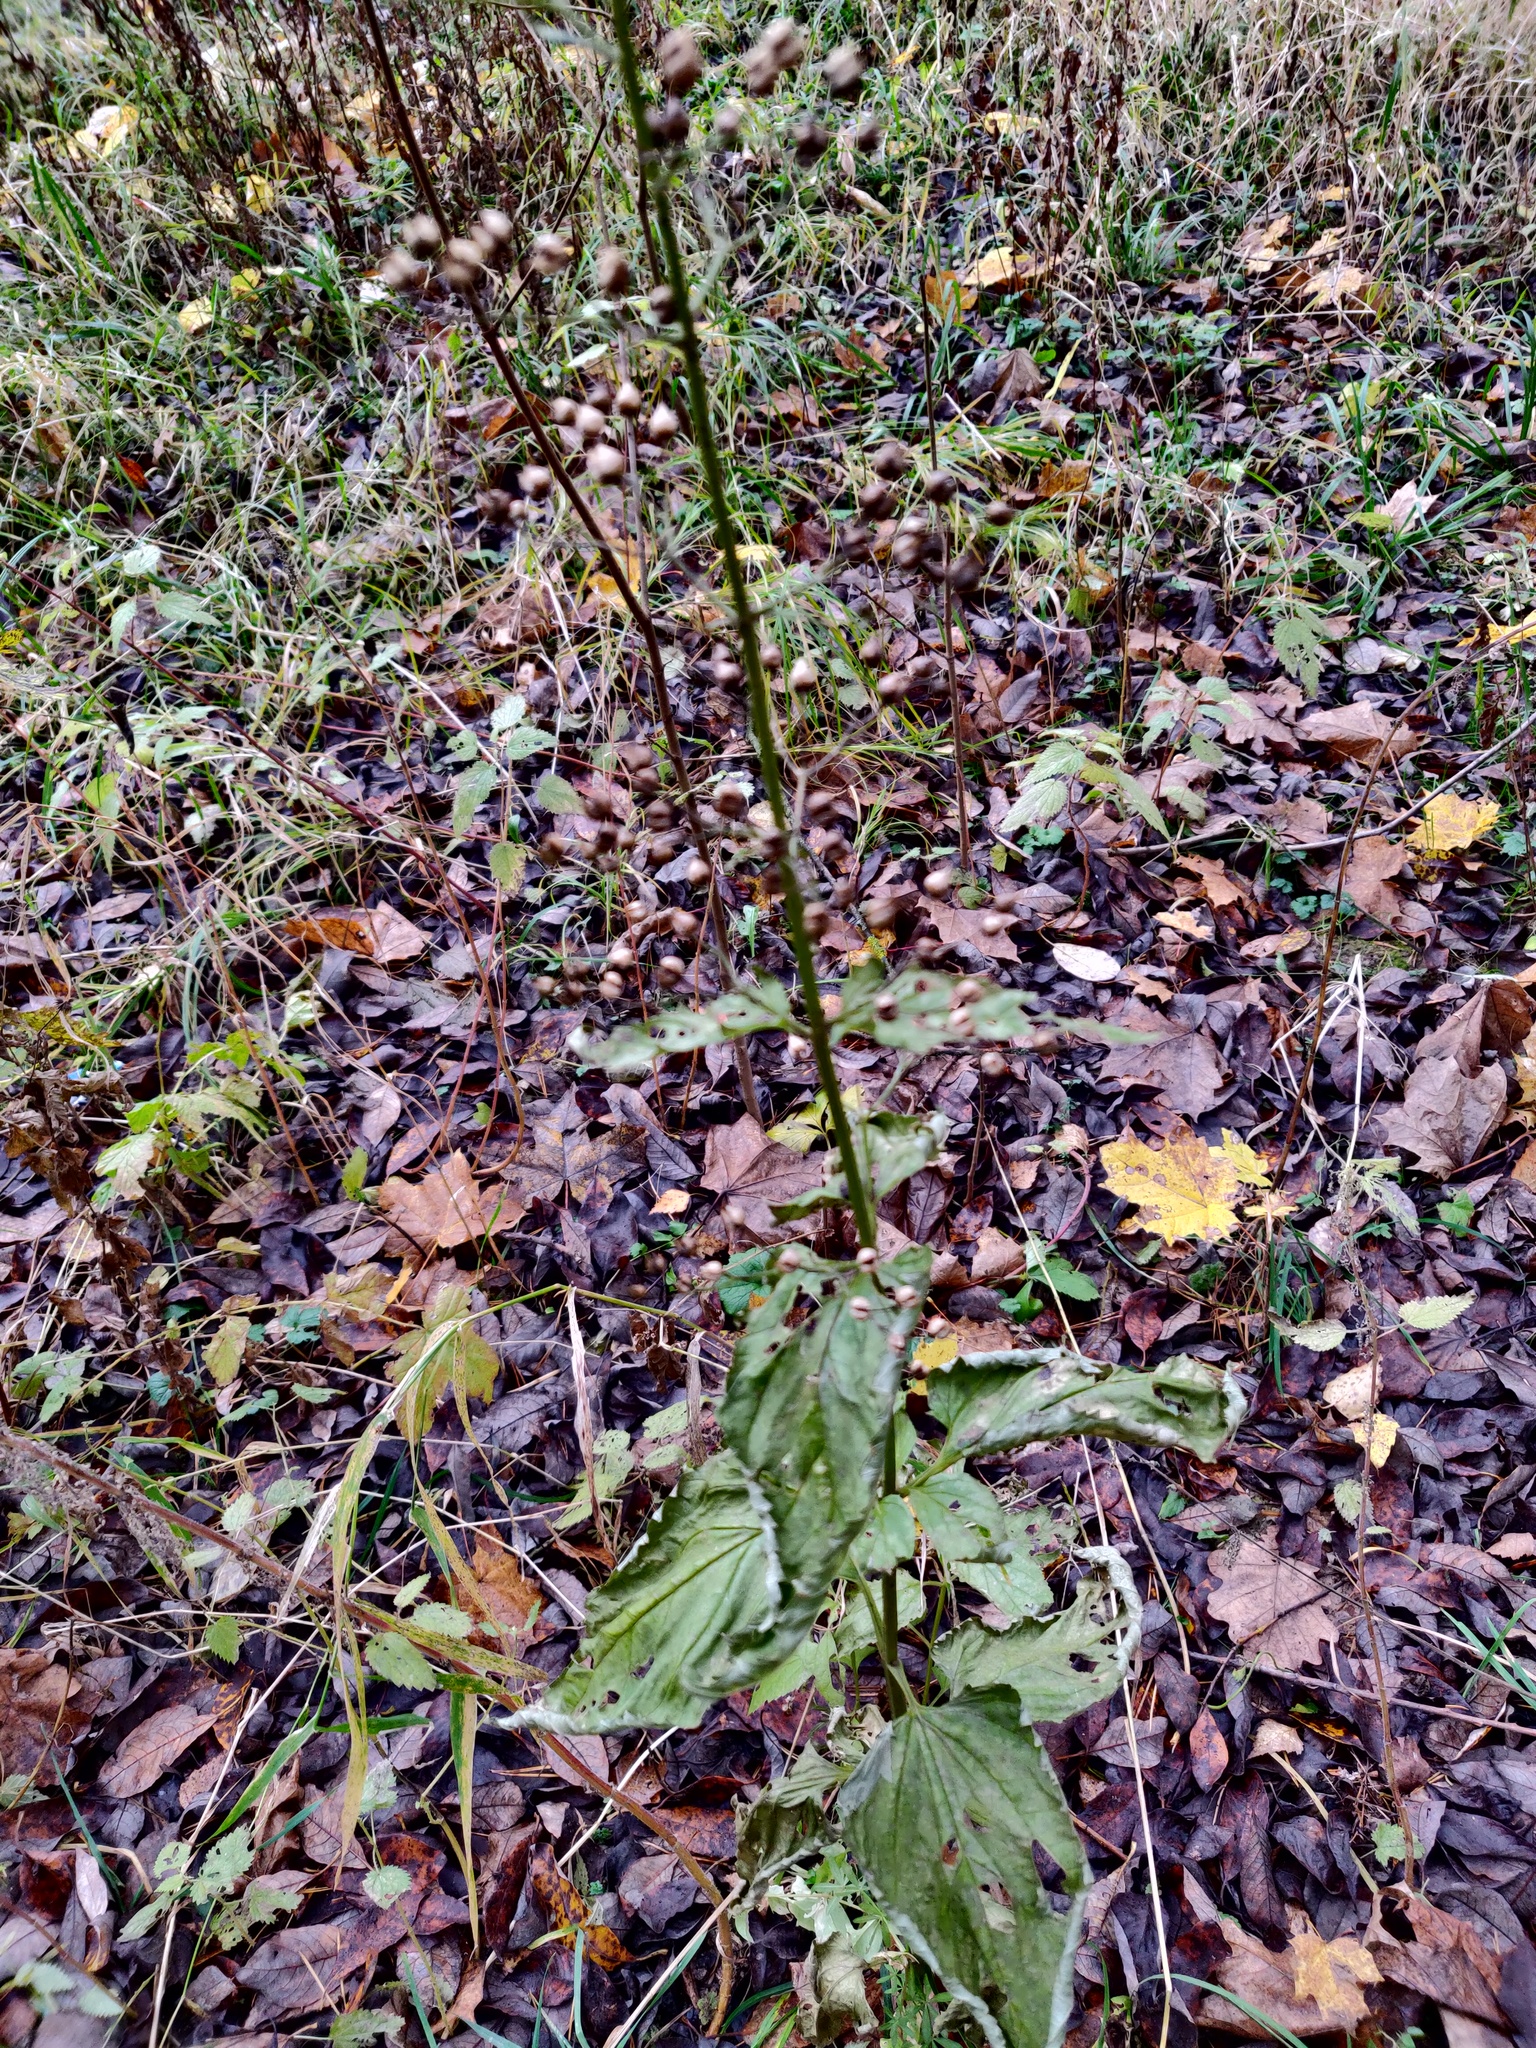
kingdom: Plantae
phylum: Tracheophyta
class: Magnoliopsida
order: Lamiales
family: Scrophulariaceae
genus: Scrophularia
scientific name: Scrophularia nodosa
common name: Common figwort
